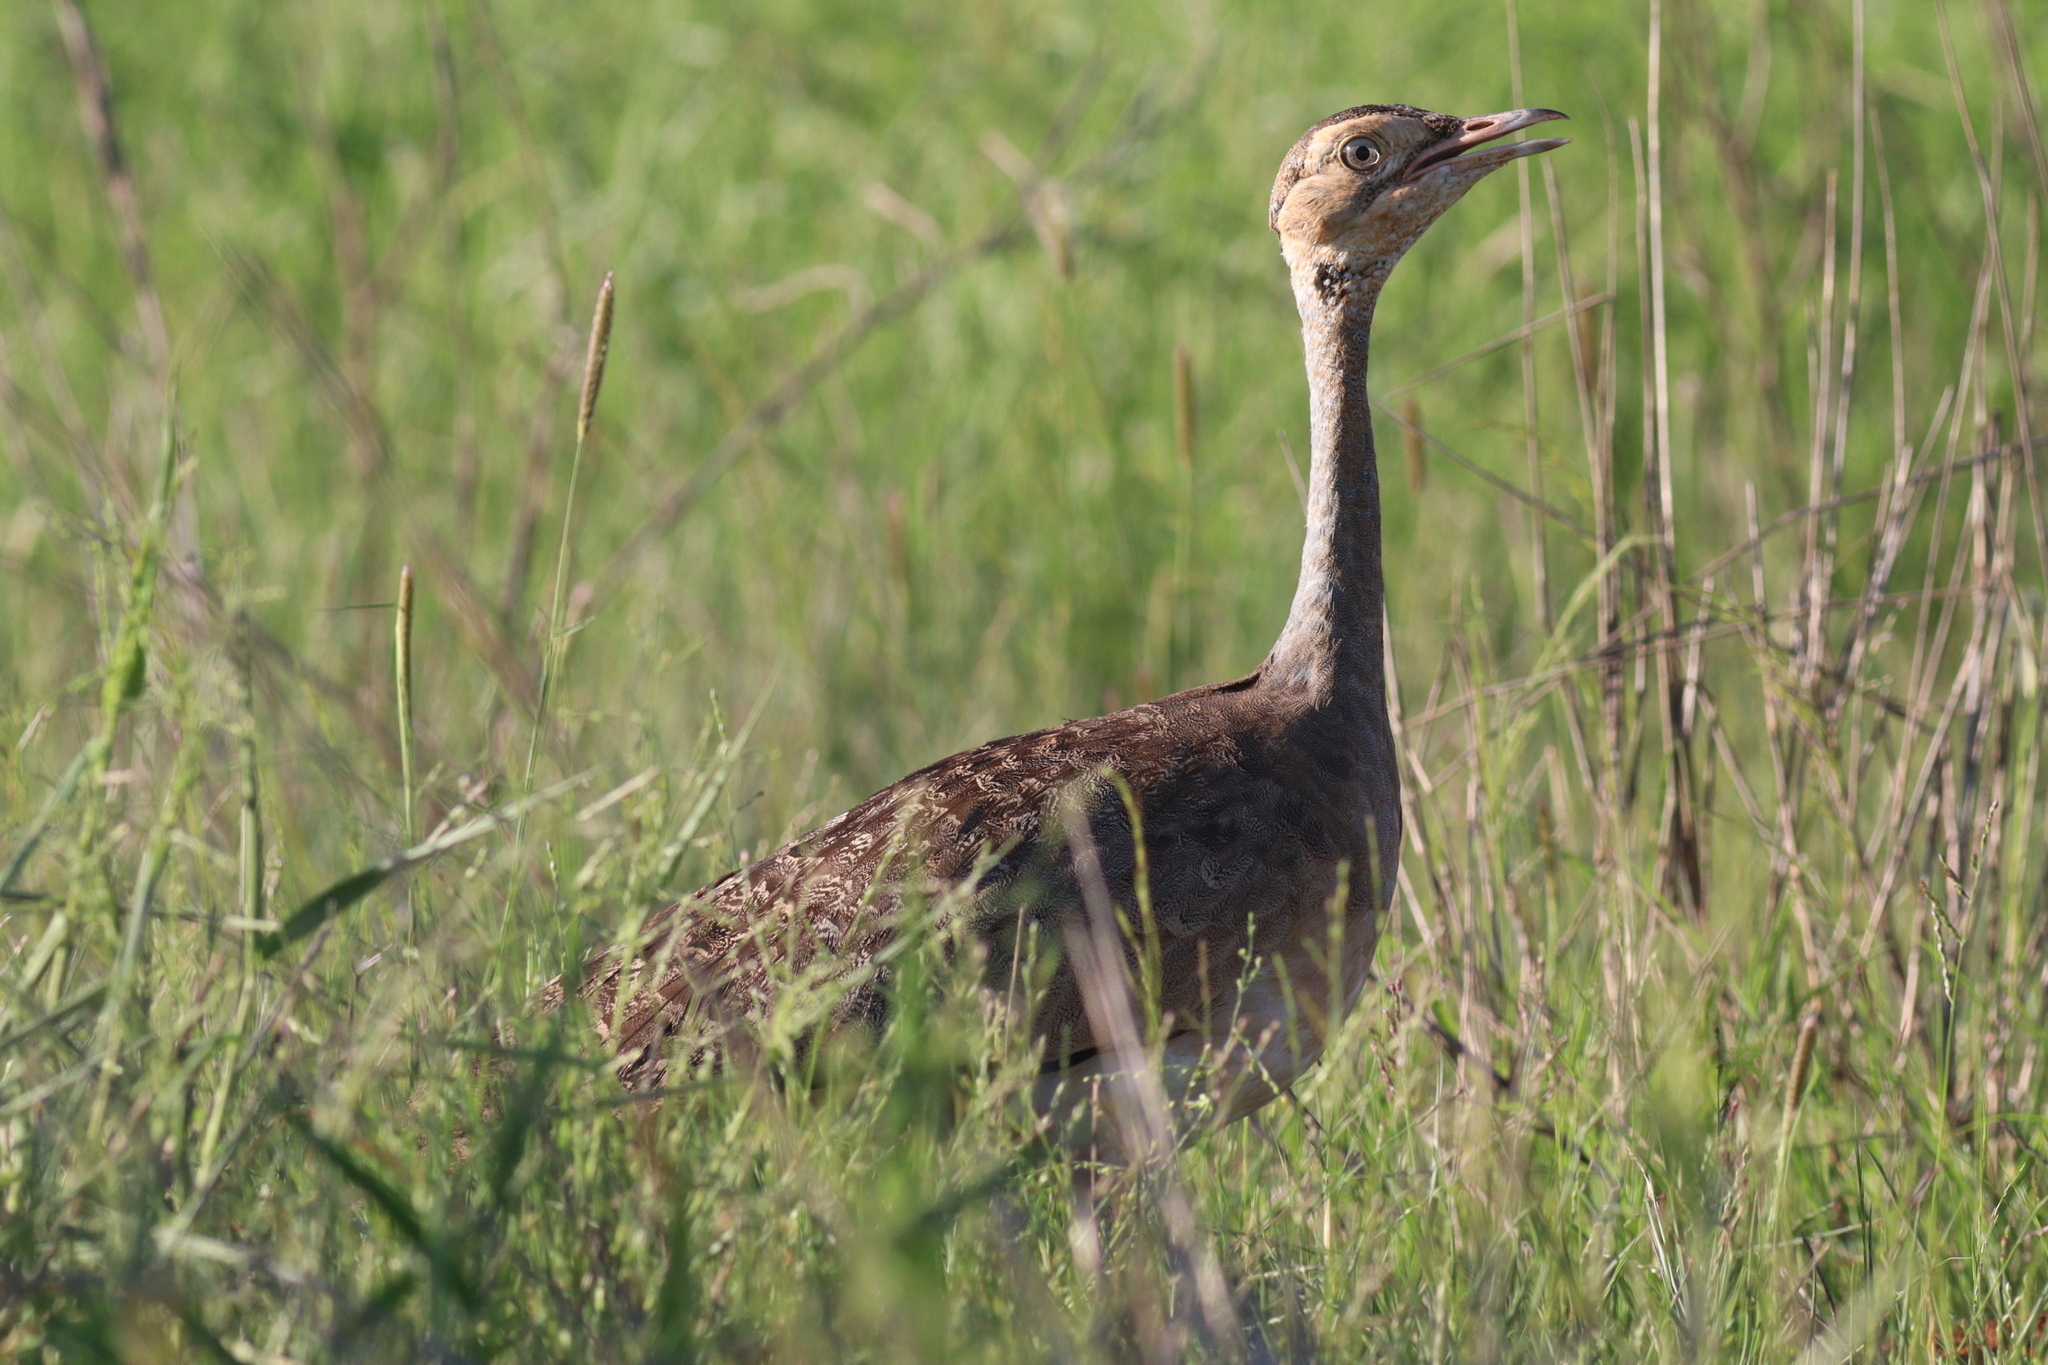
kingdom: Animalia
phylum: Chordata
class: Aves
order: Otidiformes
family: Otididae
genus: Eupodotis
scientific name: Eupodotis senegalensis
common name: White-bellied bustard
